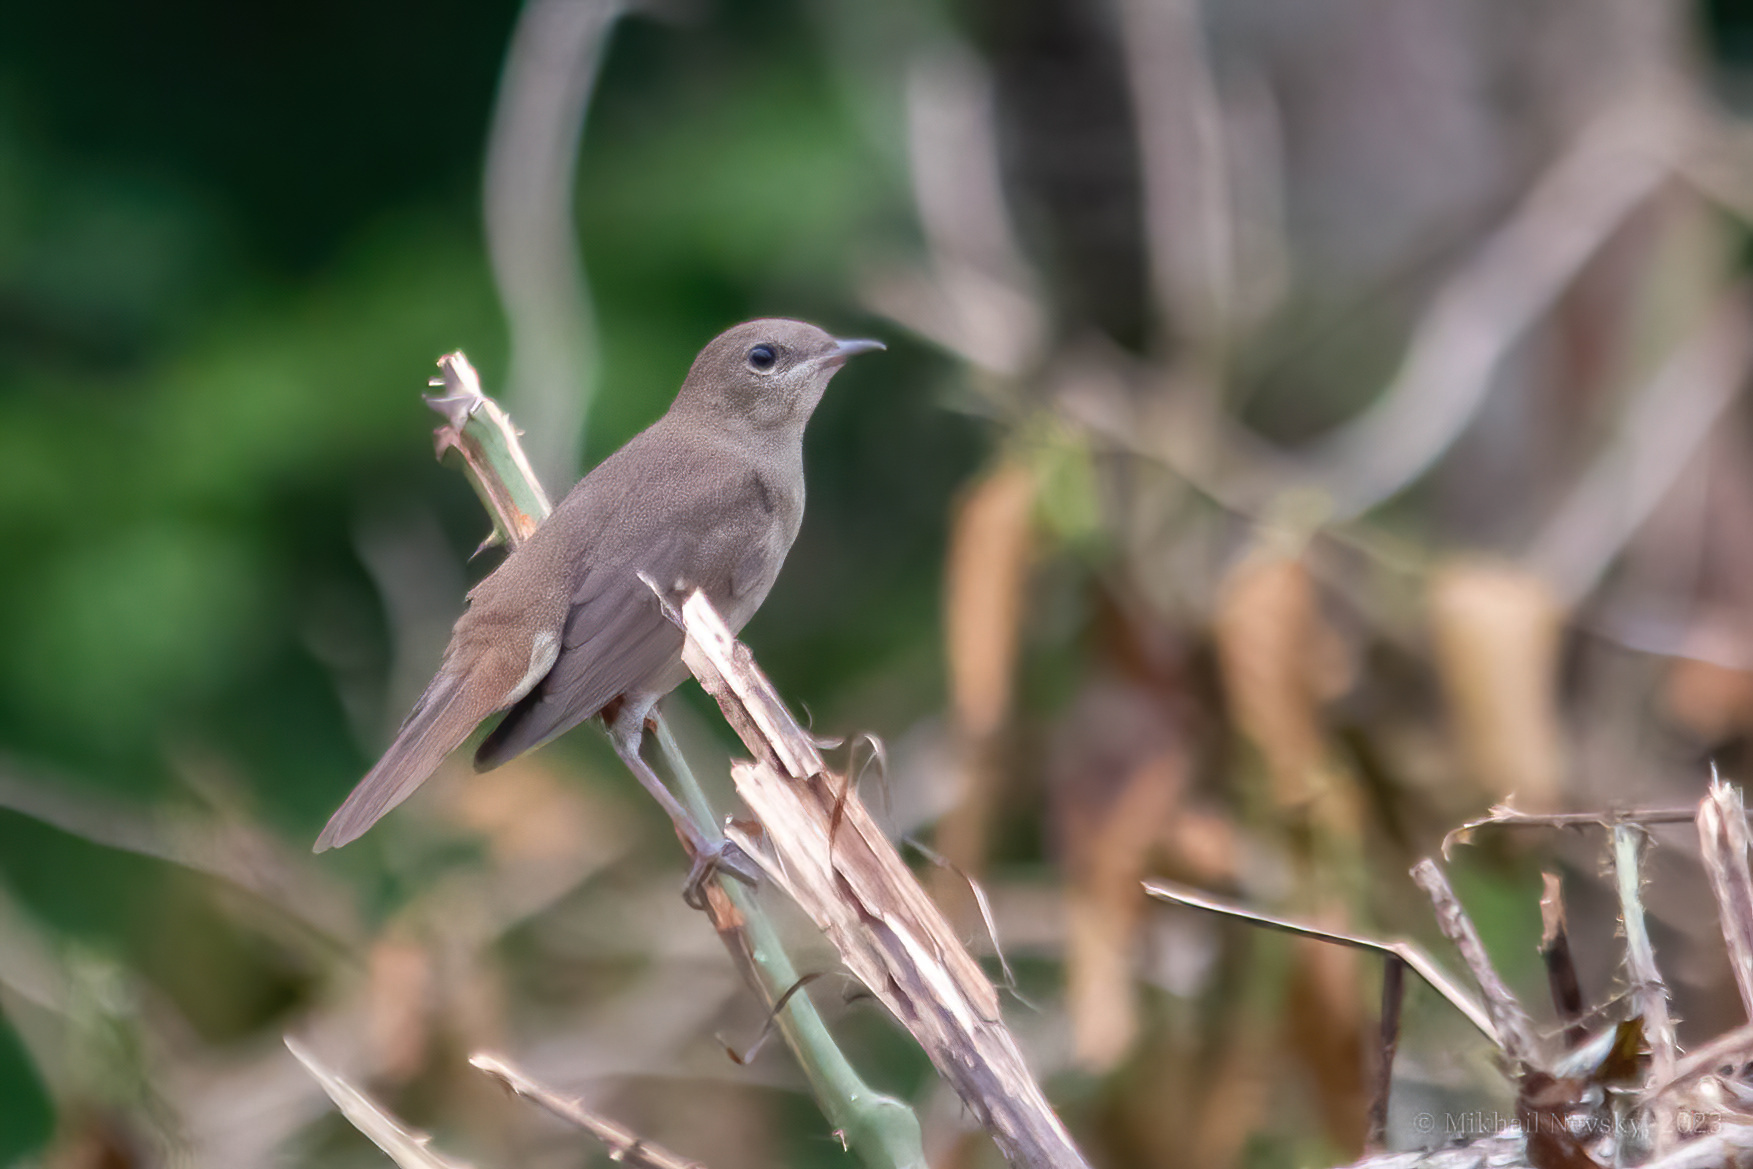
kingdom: Animalia
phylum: Chordata
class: Aves
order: Passeriformes
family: Muscicapidae
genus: Luscinia
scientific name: Luscinia megarhynchos
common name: Common nightingale
